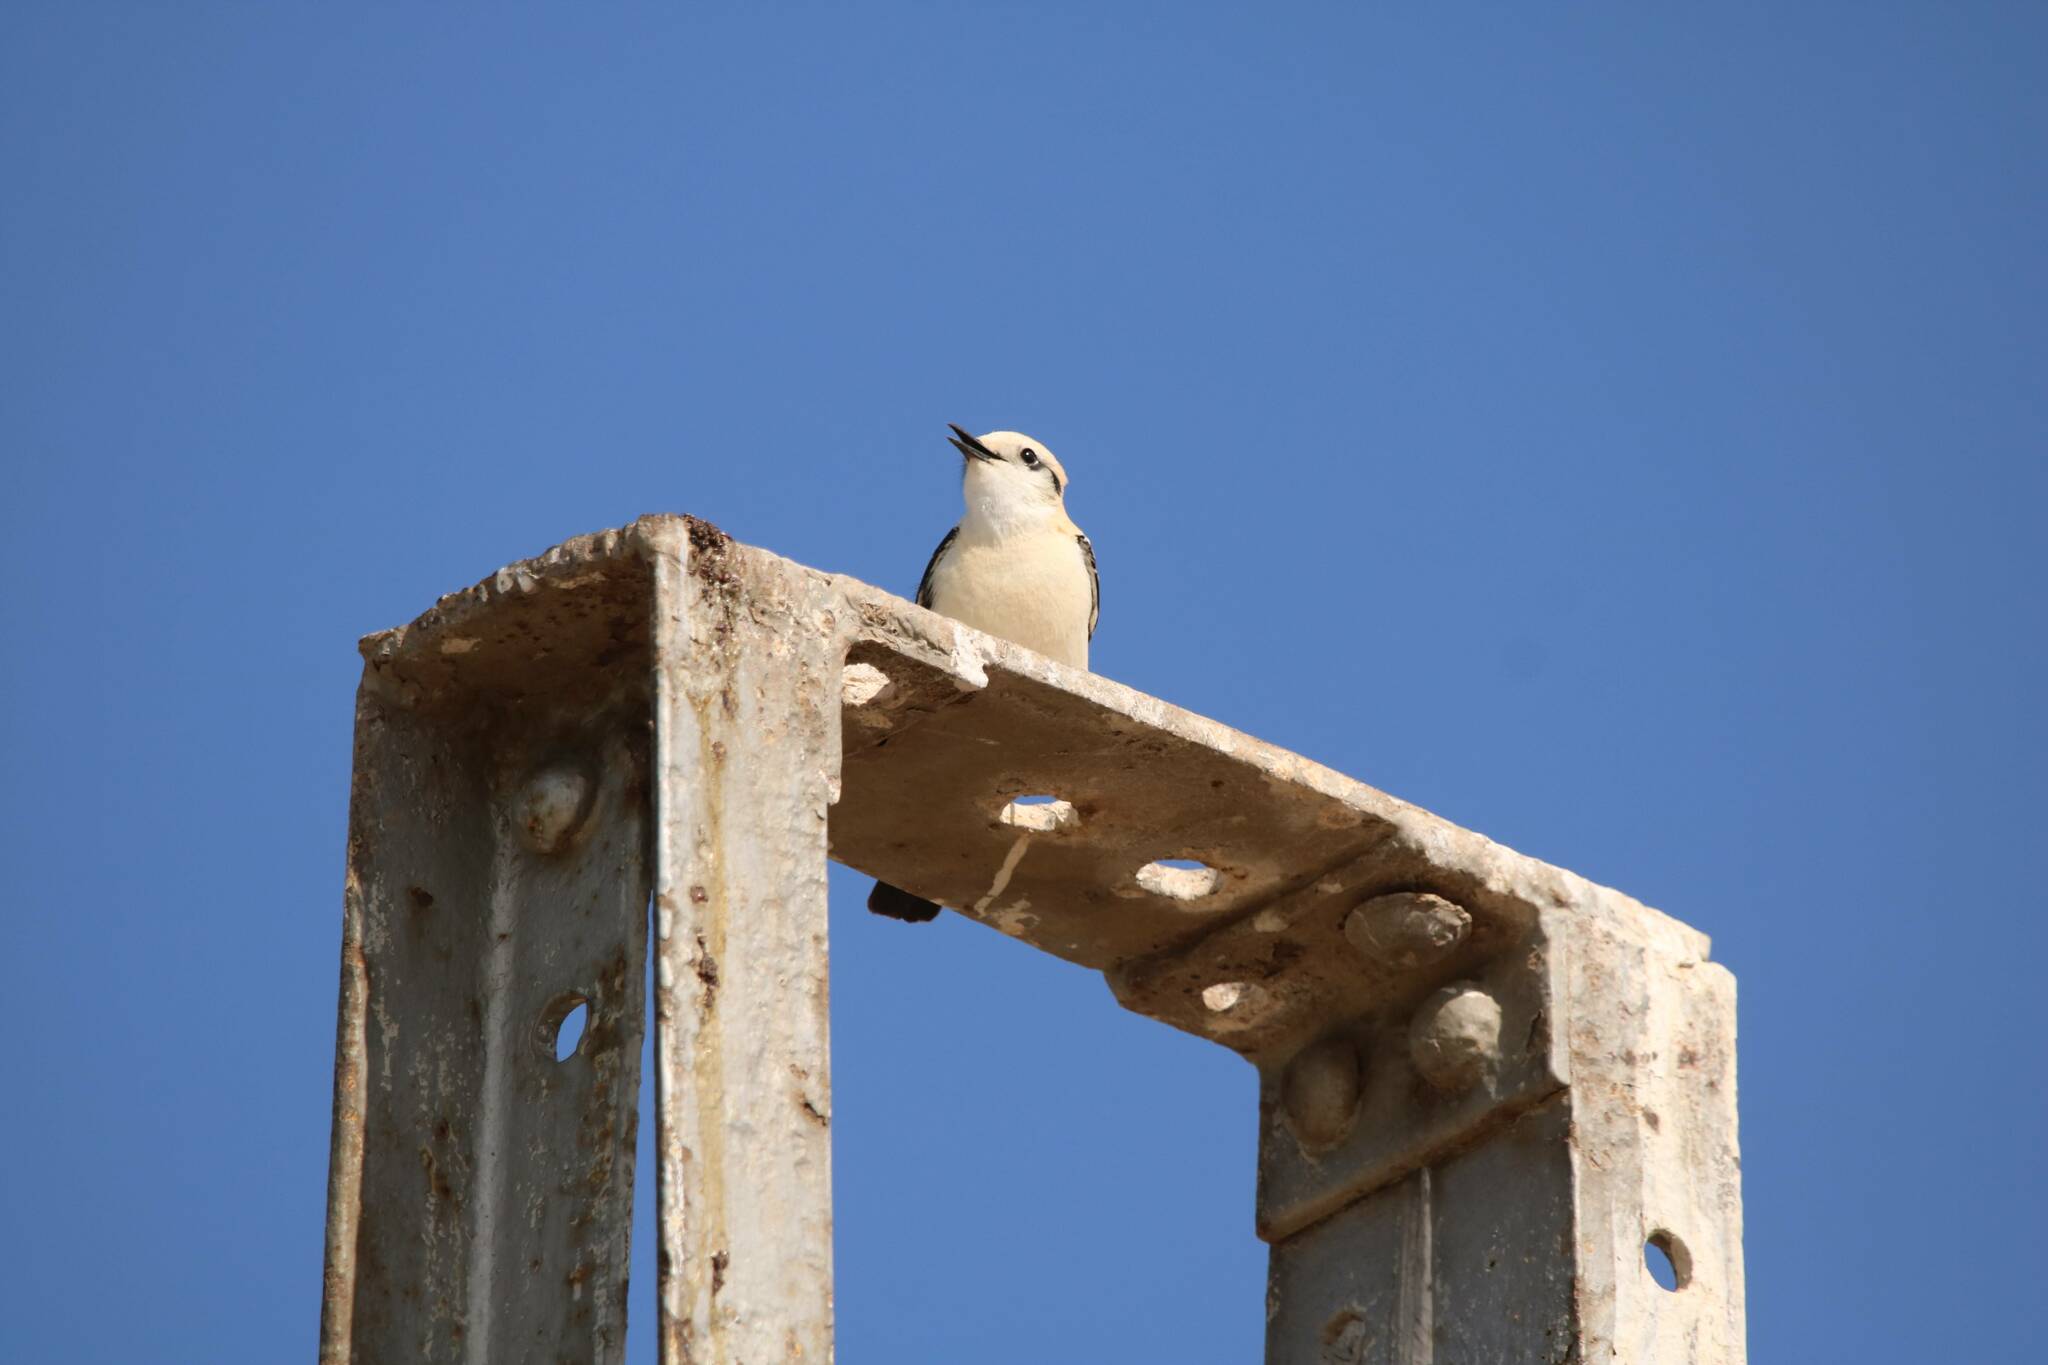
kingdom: Animalia
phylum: Chordata
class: Aves
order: Passeriformes
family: Muscicapidae
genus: Oenanthe
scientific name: Oenanthe hispanica
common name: Black-eared wheatear
